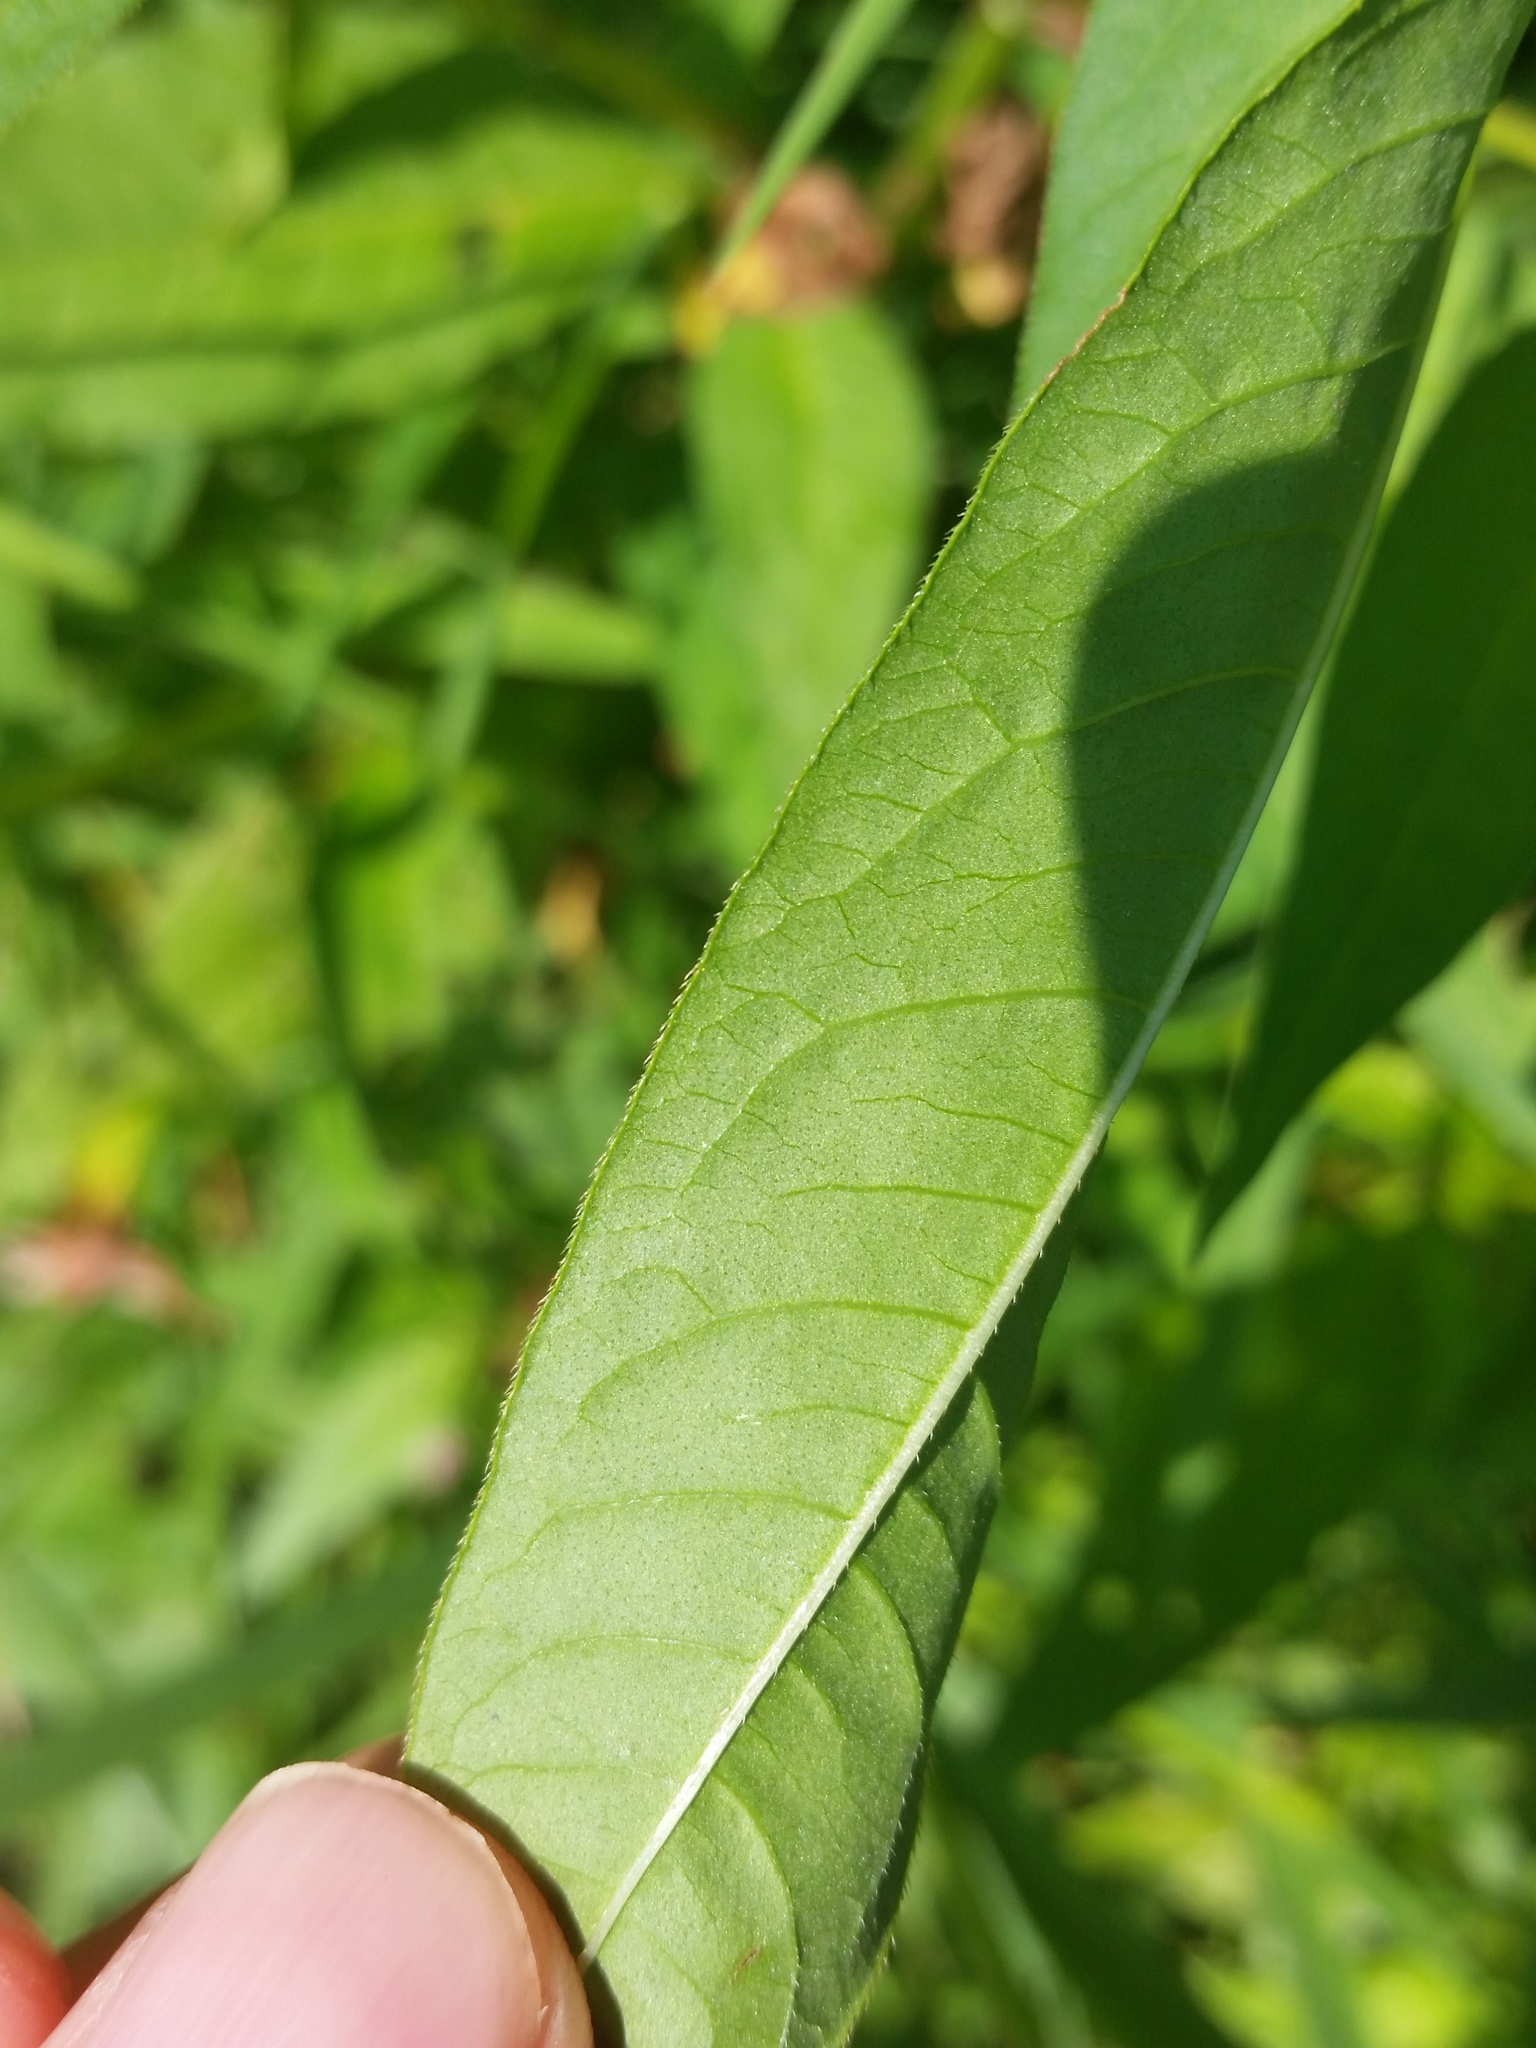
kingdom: Plantae
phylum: Tracheophyta
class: Magnoliopsida
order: Caryophyllales
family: Polygonaceae
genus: Persicaria
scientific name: Persicaria pensylvanica
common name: Pinkweed
